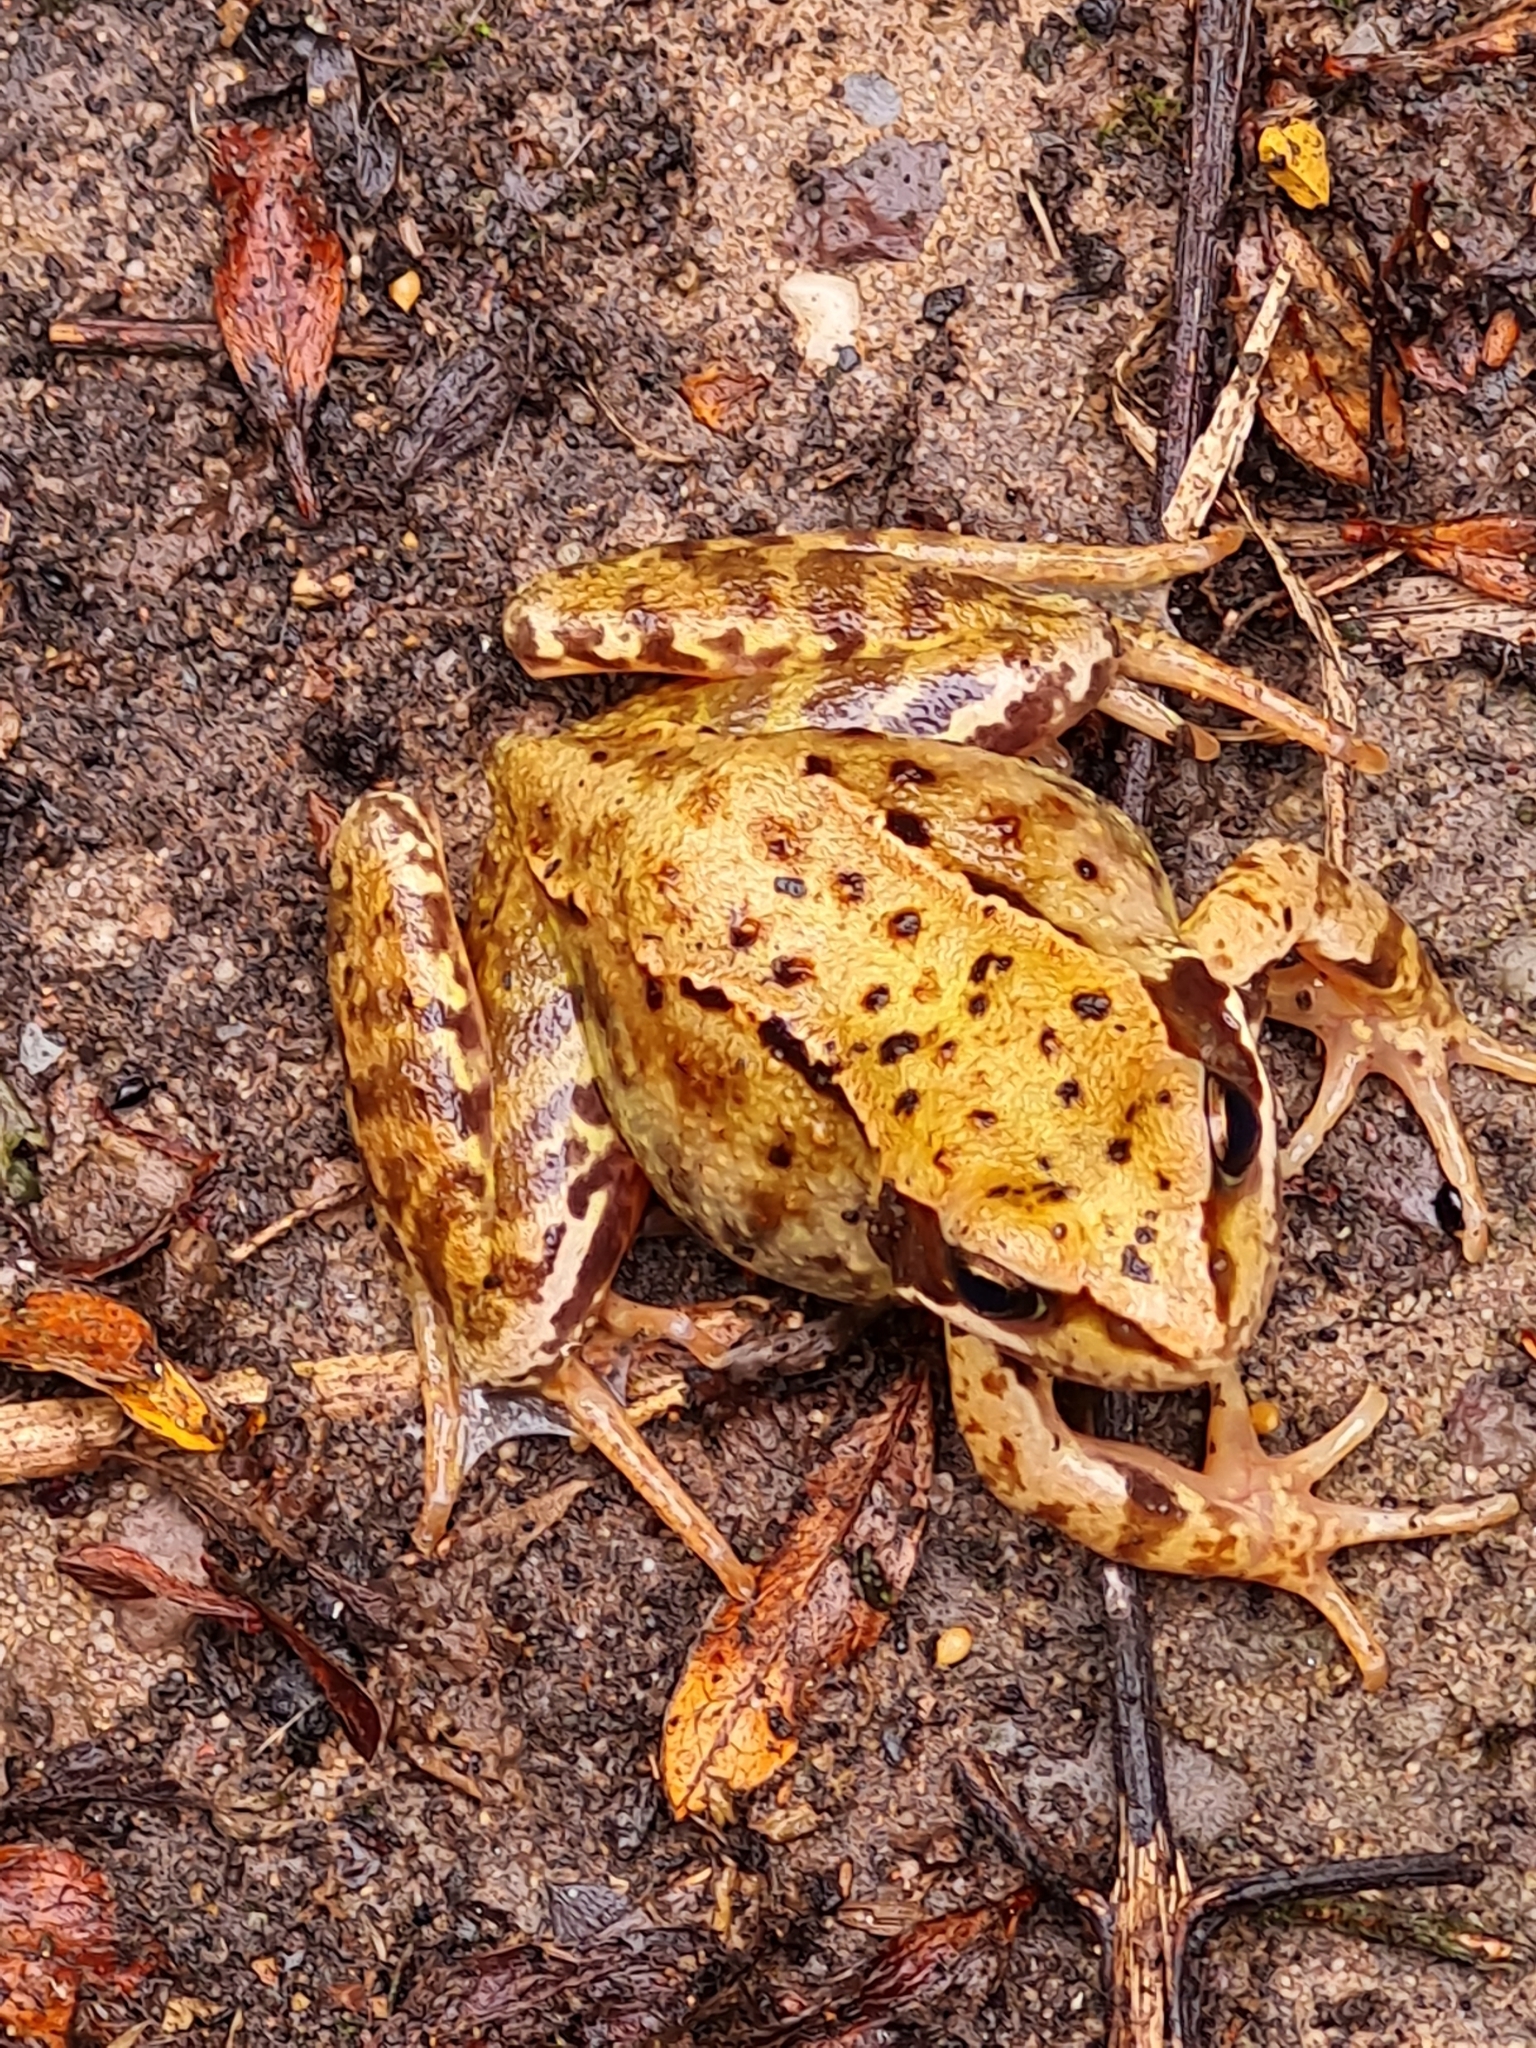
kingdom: Animalia
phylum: Chordata
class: Amphibia
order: Anura
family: Ranidae
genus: Rana
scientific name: Rana temporaria
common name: Common frog
